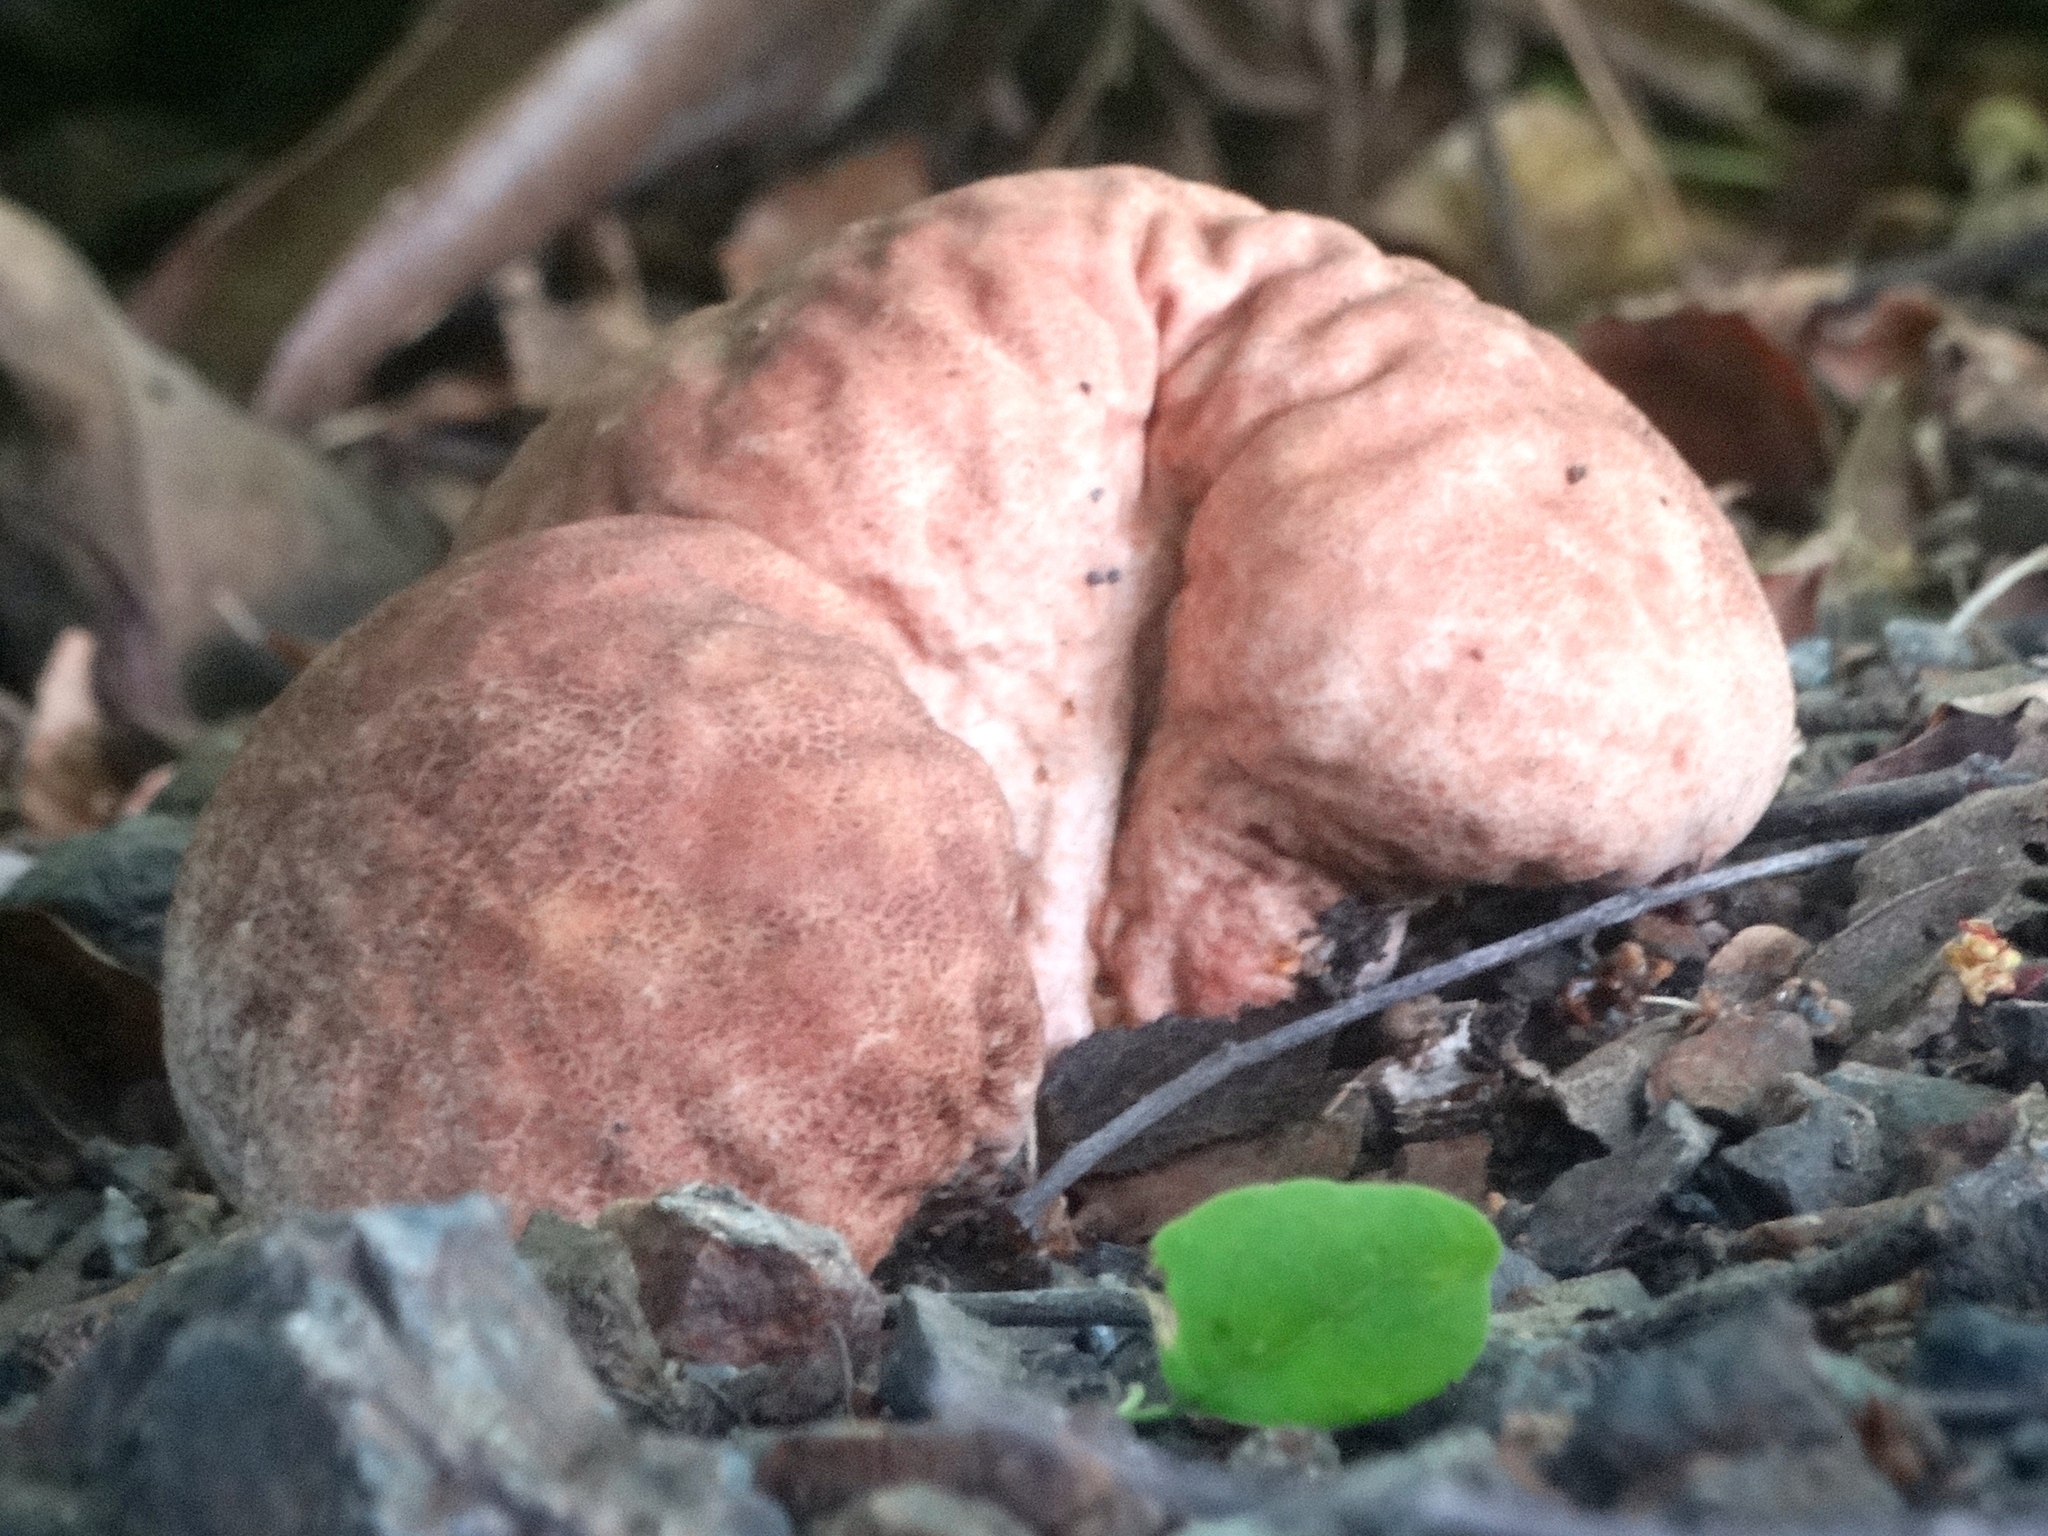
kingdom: Fungi
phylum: Basidiomycota
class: Agaricomycetes
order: Agaricales
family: Lycoperdaceae
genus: Calvatia
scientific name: Calvatia
